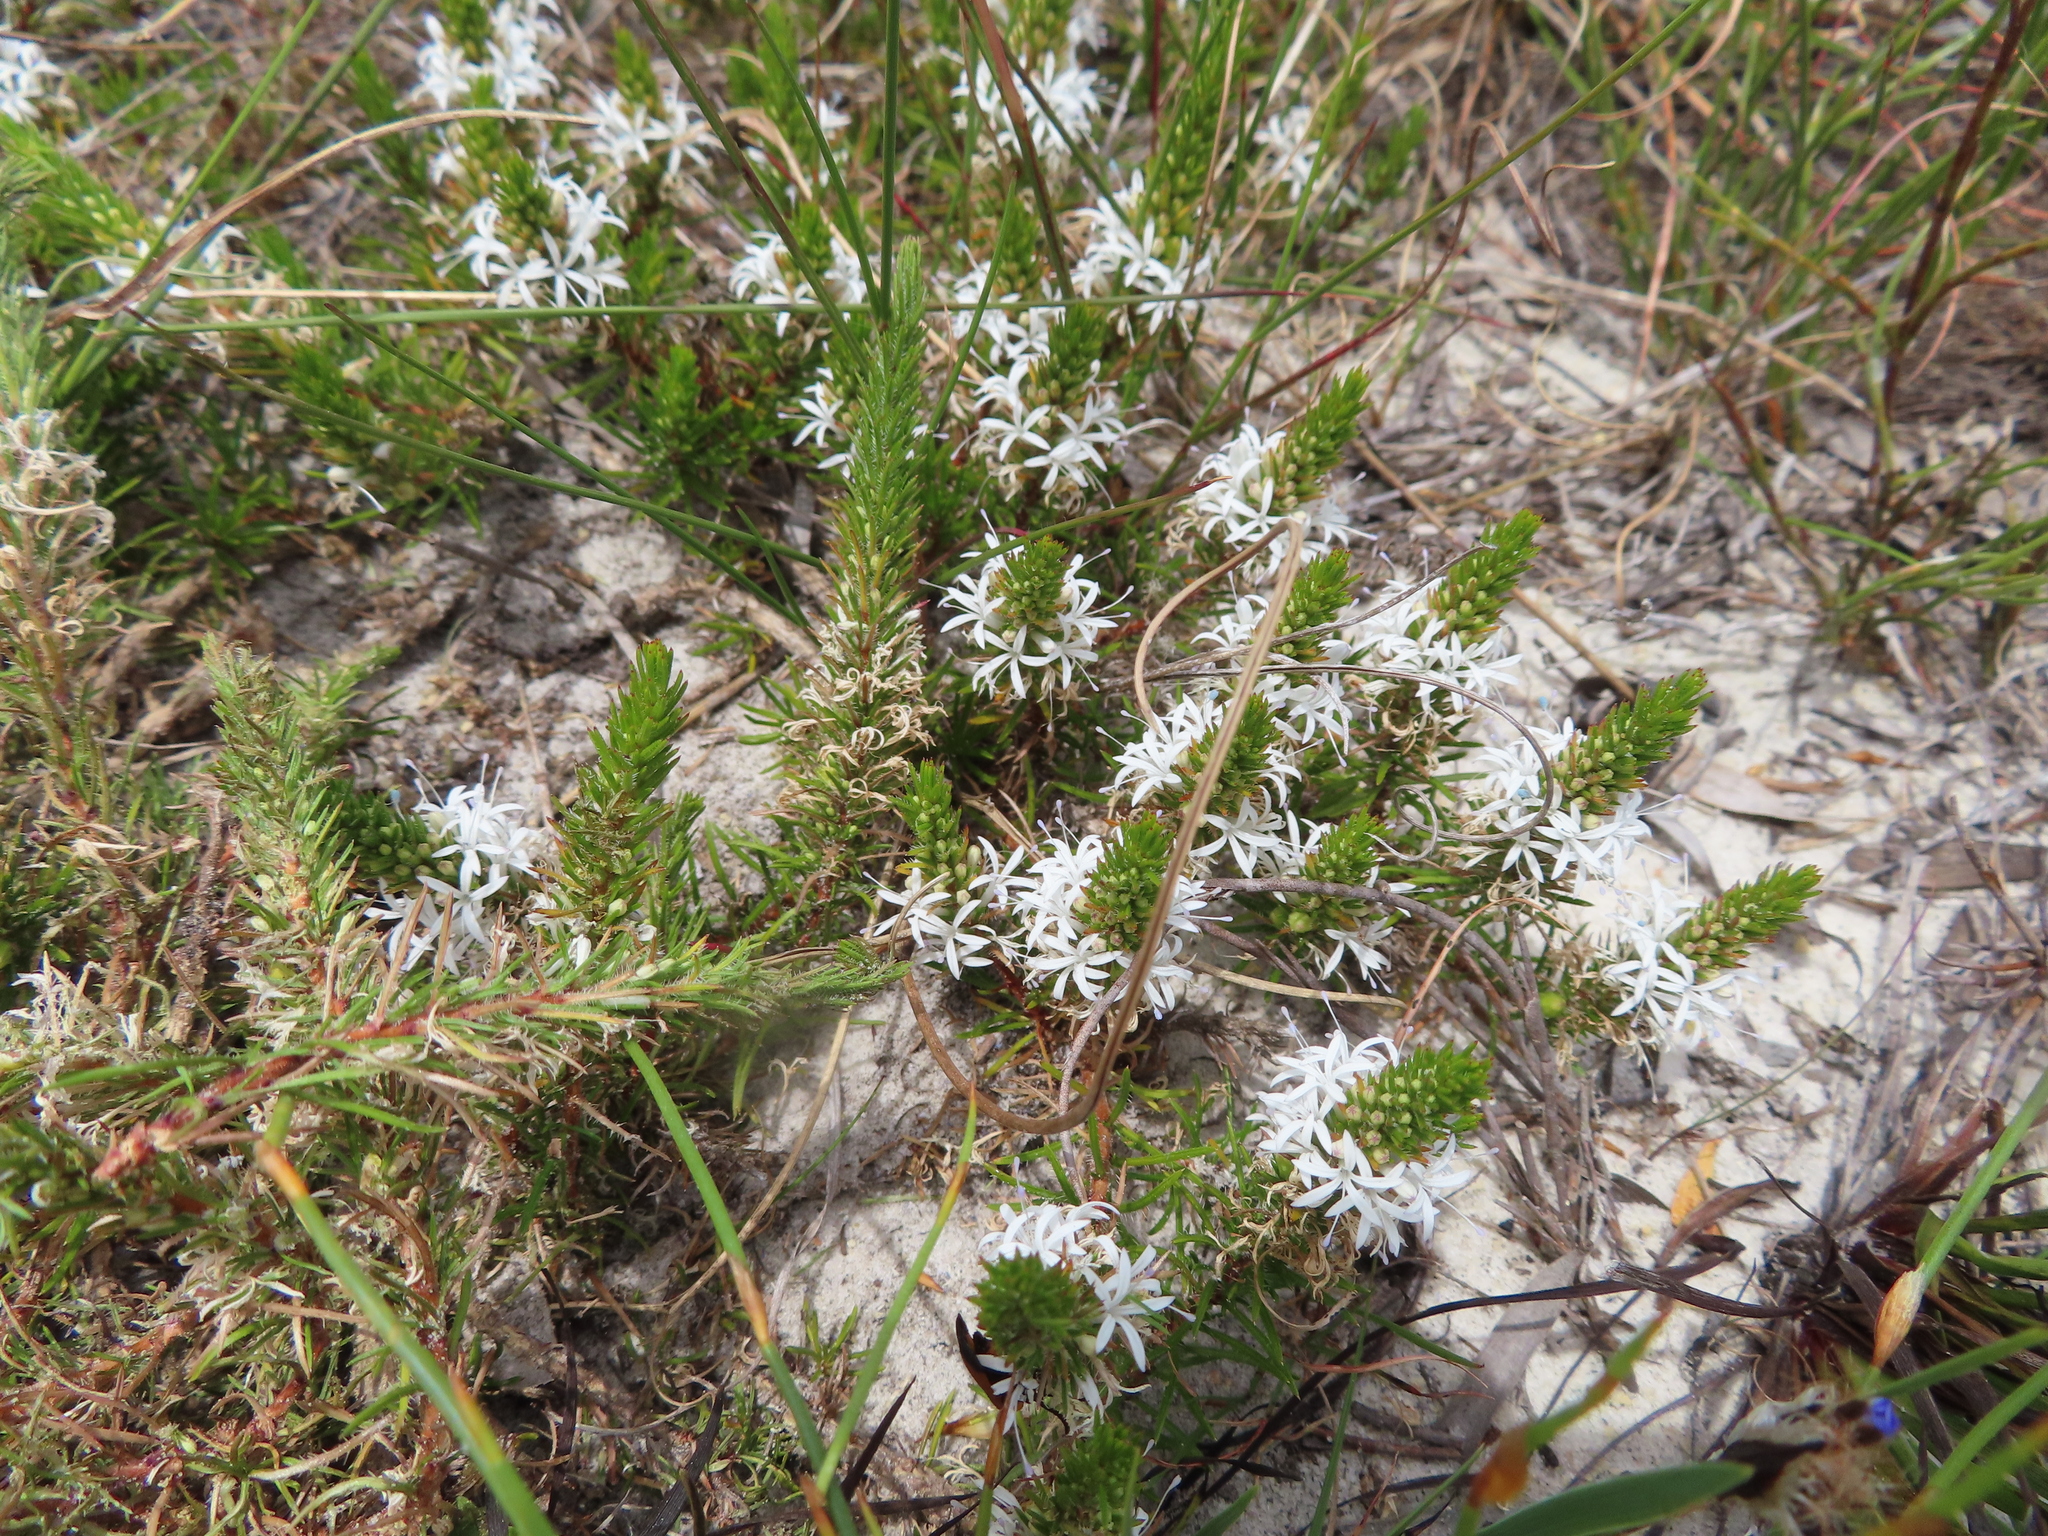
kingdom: Plantae
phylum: Tracheophyta
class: Magnoliopsida
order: Asterales
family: Campanulaceae
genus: Merciera
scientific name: Merciera leptoloba
